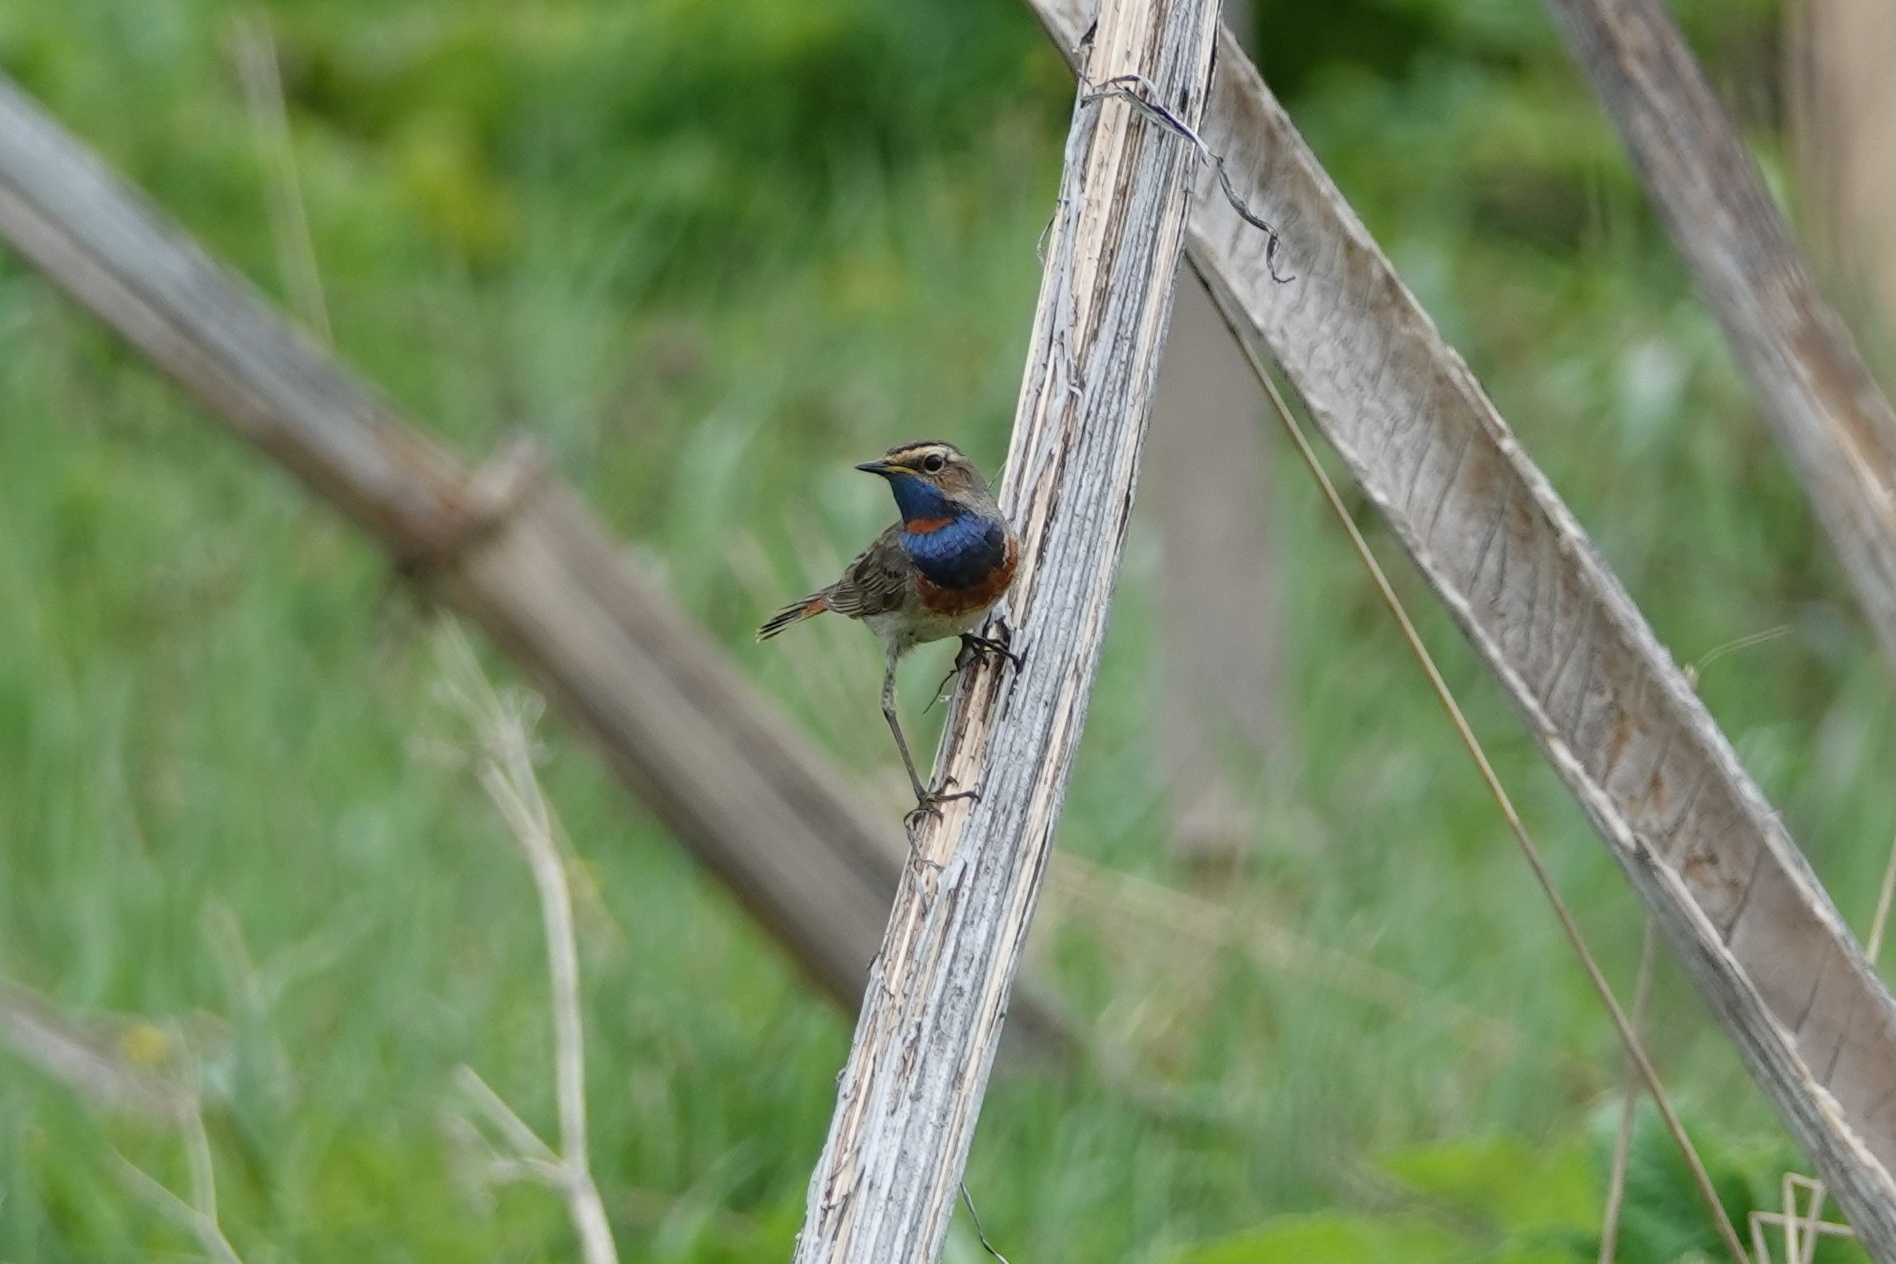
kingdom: Animalia
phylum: Chordata
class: Aves
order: Passeriformes
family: Muscicapidae
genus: Luscinia
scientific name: Luscinia svecica
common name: Bluethroat
